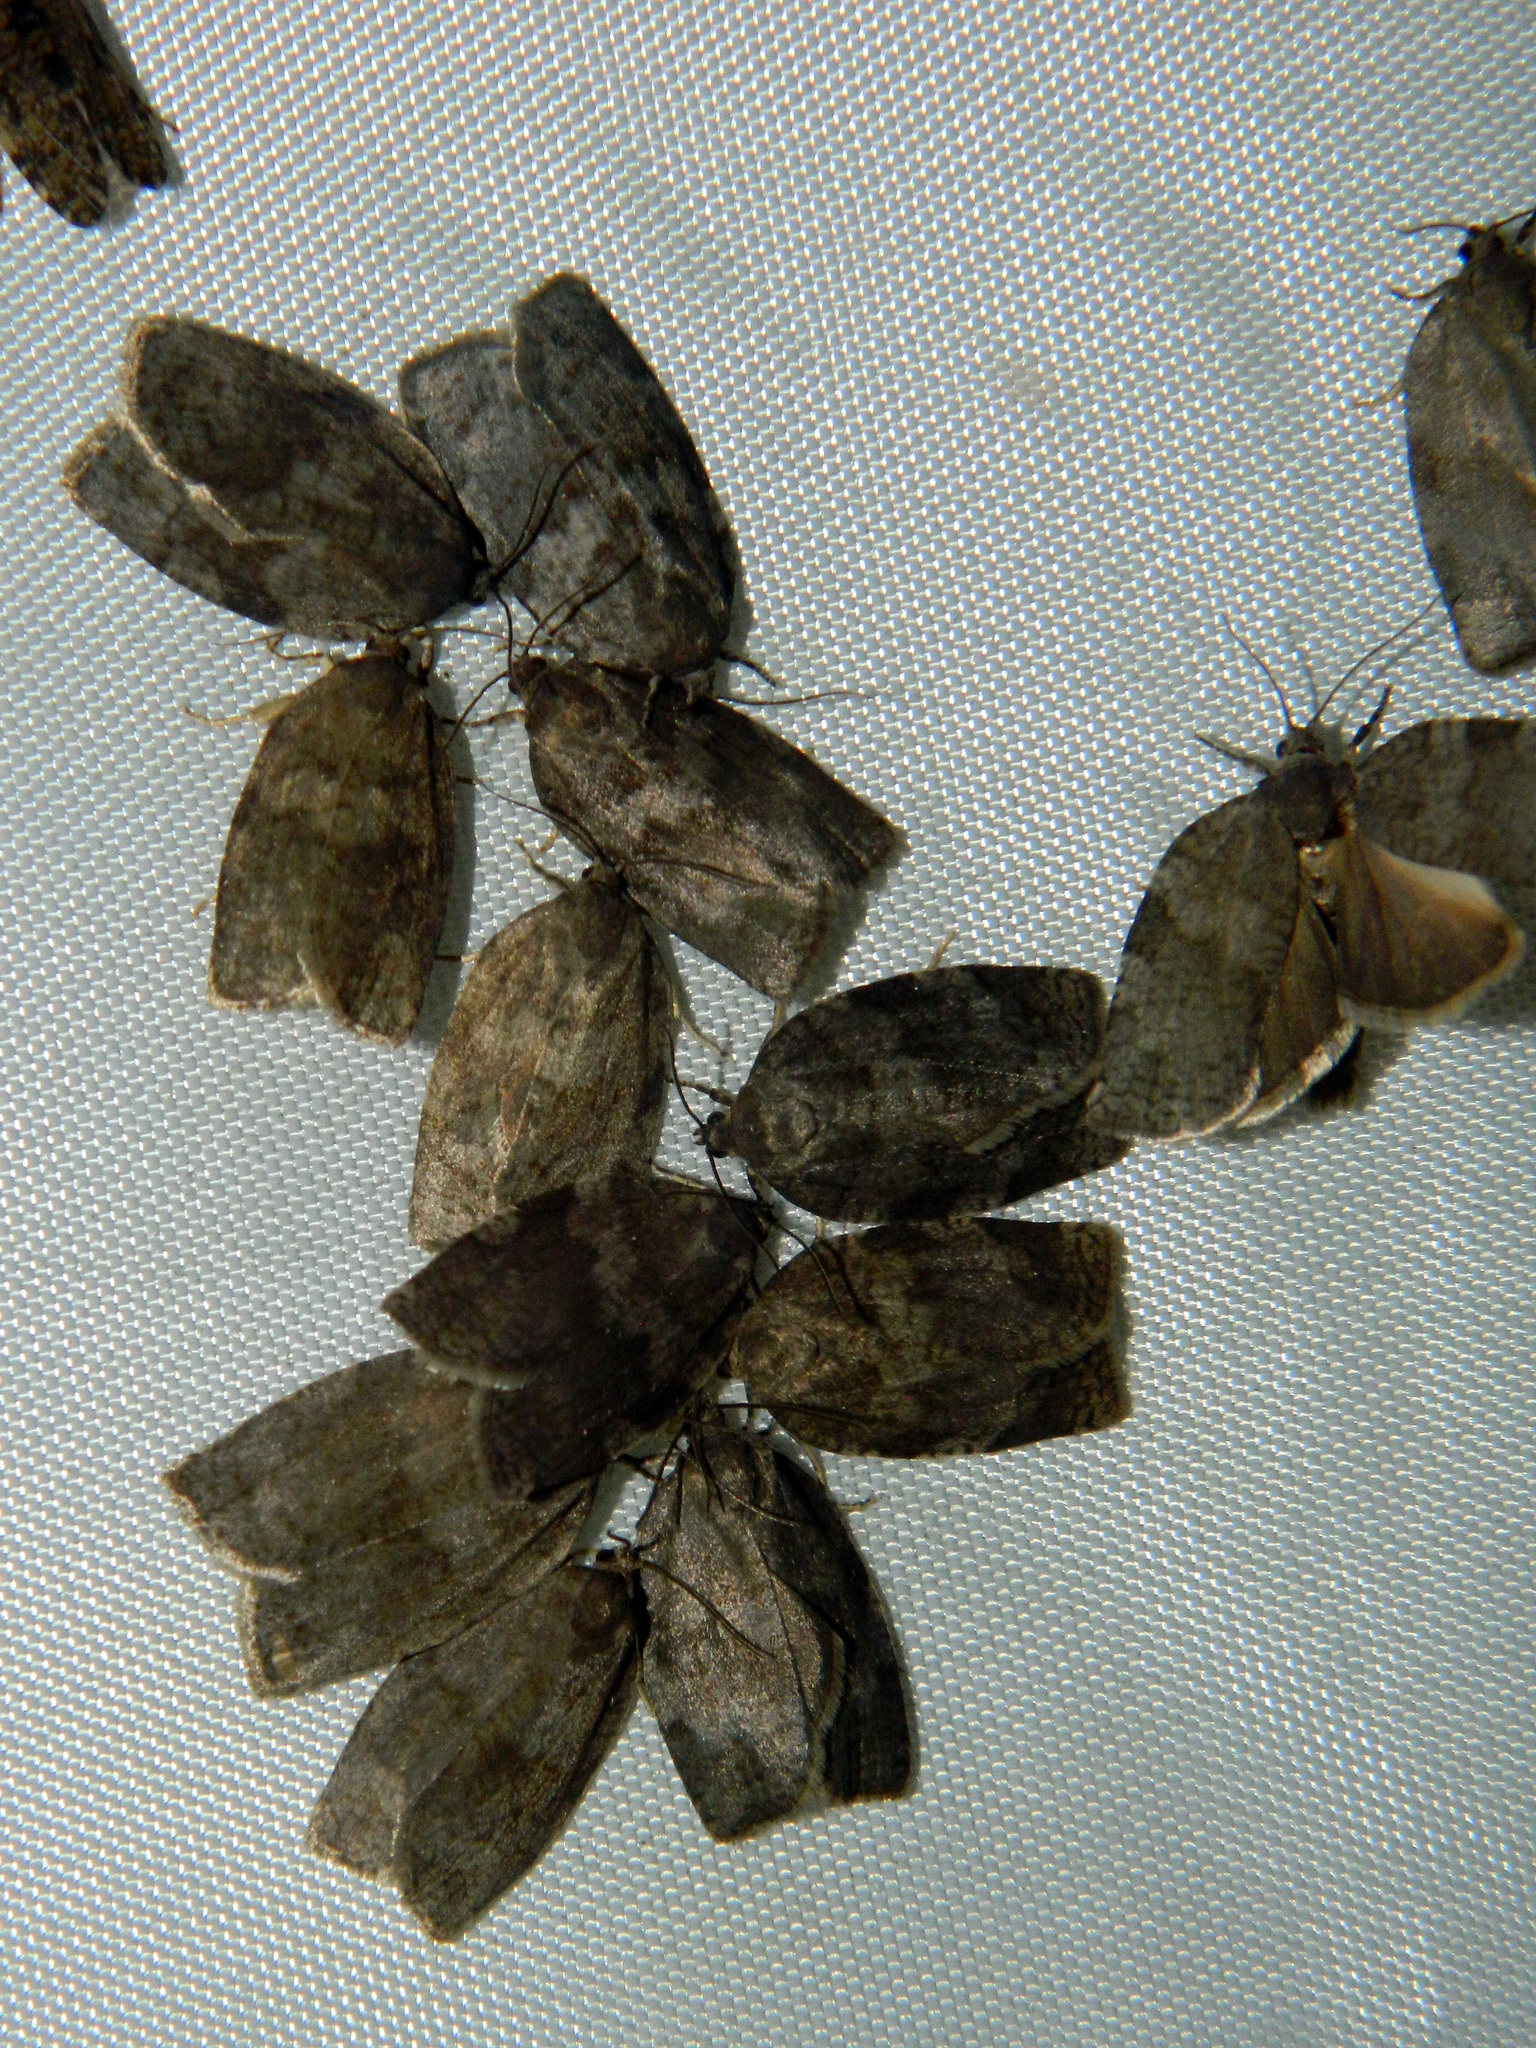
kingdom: Animalia
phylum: Arthropoda
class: Insecta
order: Lepidoptera
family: Tortricidae
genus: Choristoneura
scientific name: Choristoneura conflictana
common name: Large aspen tortrix
